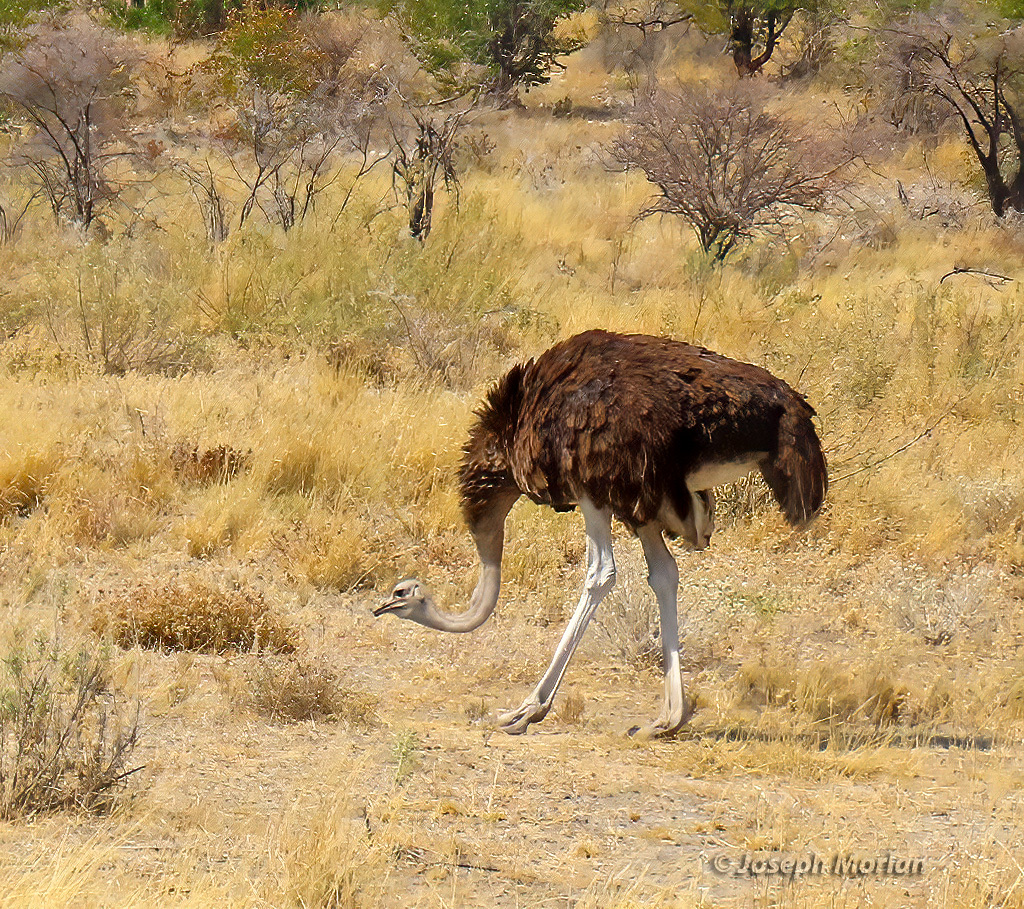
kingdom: Animalia
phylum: Chordata
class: Aves
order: Struthioniformes
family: Struthionidae
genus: Struthio
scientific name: Struthio camelus
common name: Common ostrich
